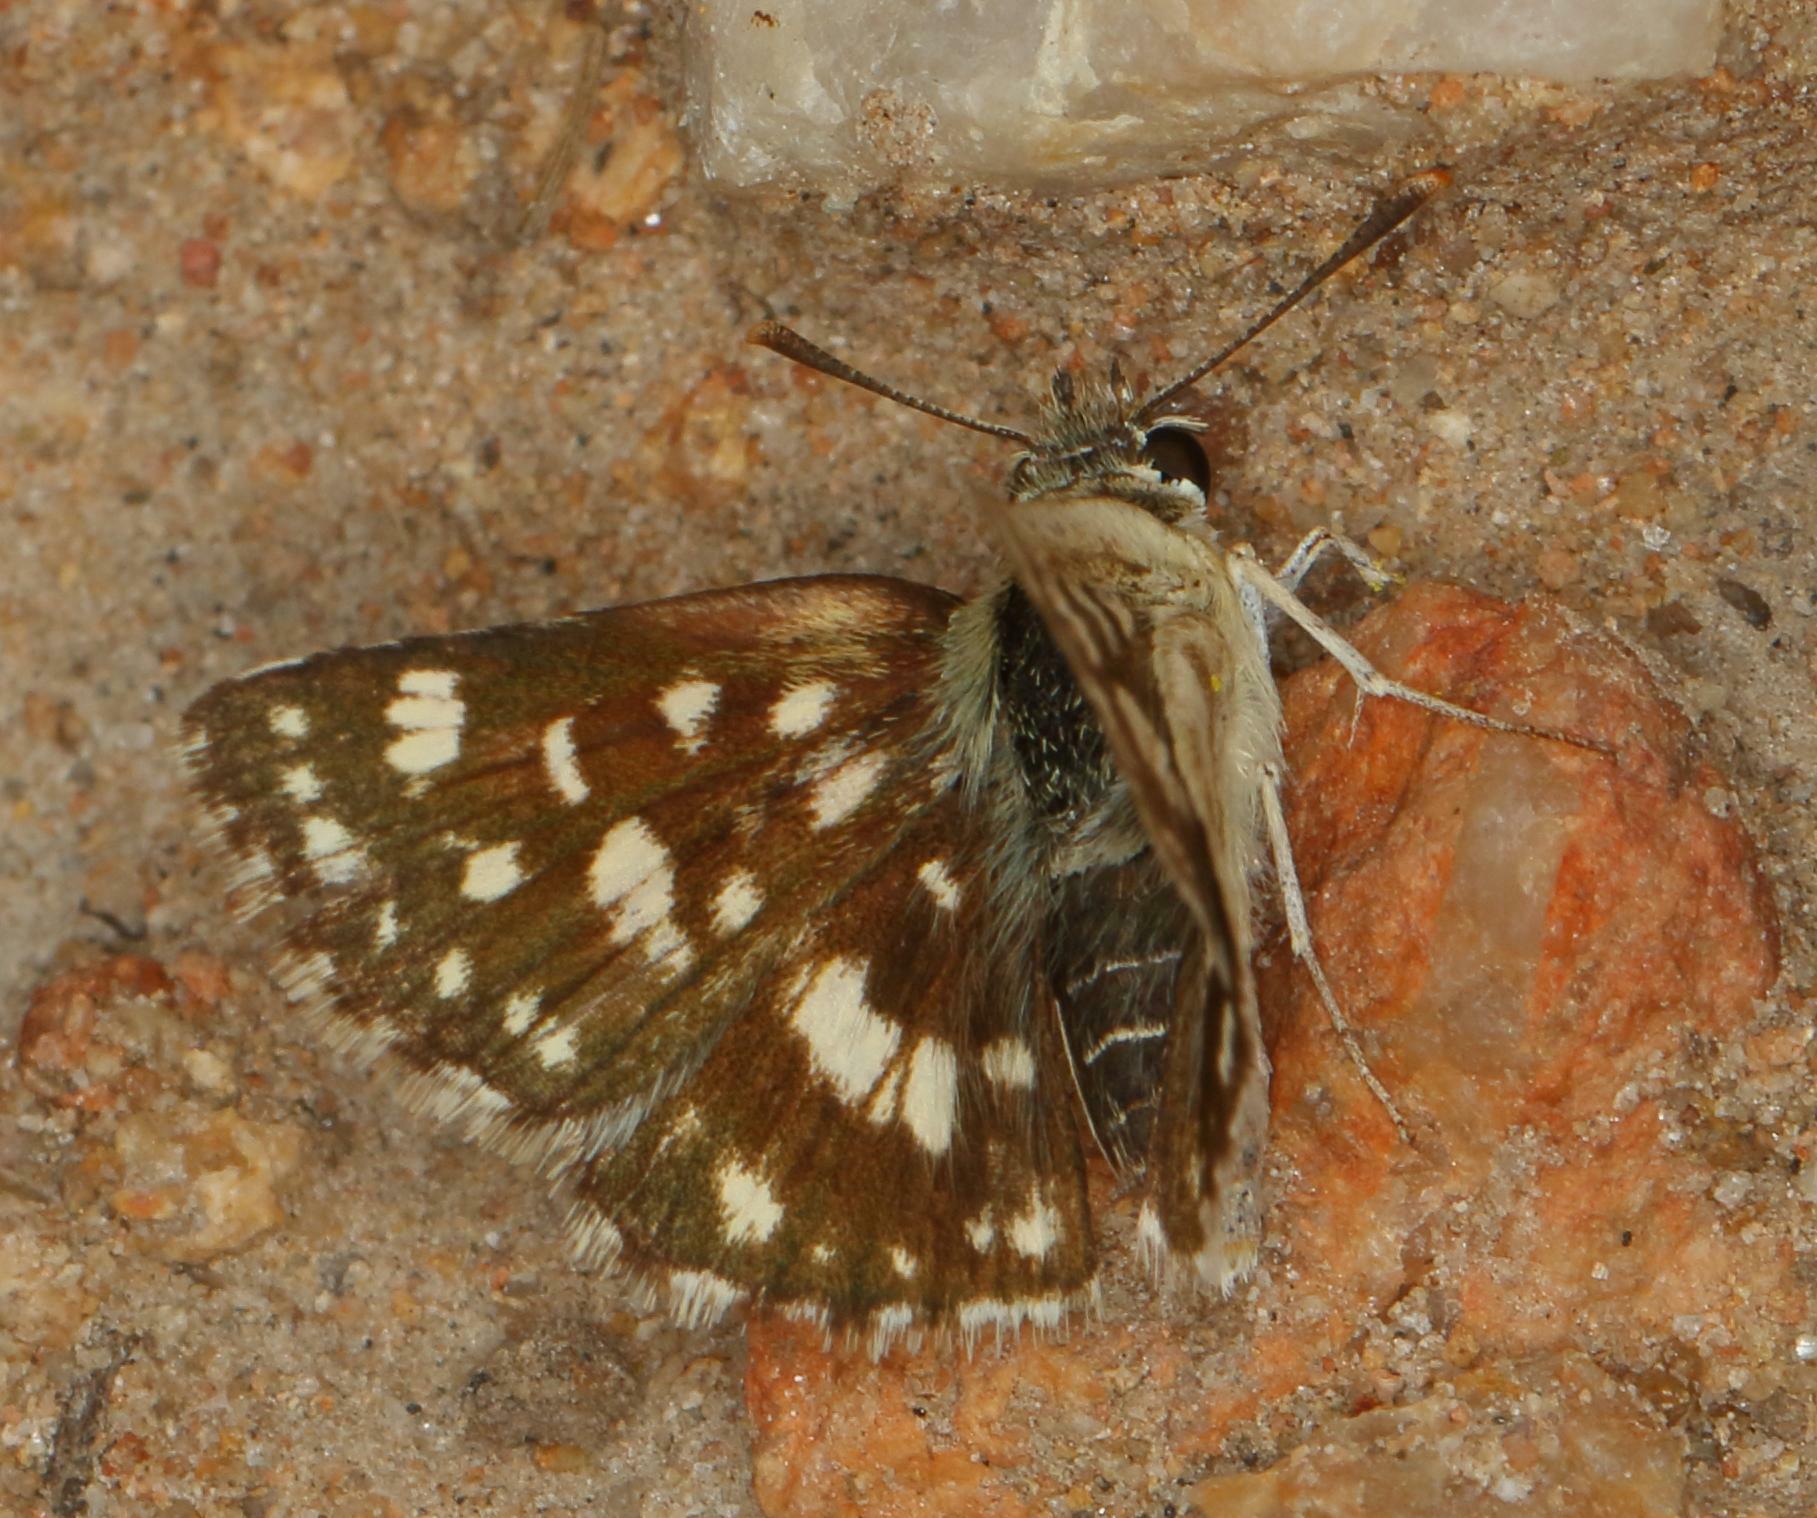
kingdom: Animalia
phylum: Arthropoda
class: Insecta
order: Lepidoptera
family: Hesperiidae
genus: Spialia
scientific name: Spialia diomus
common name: Common sandman
